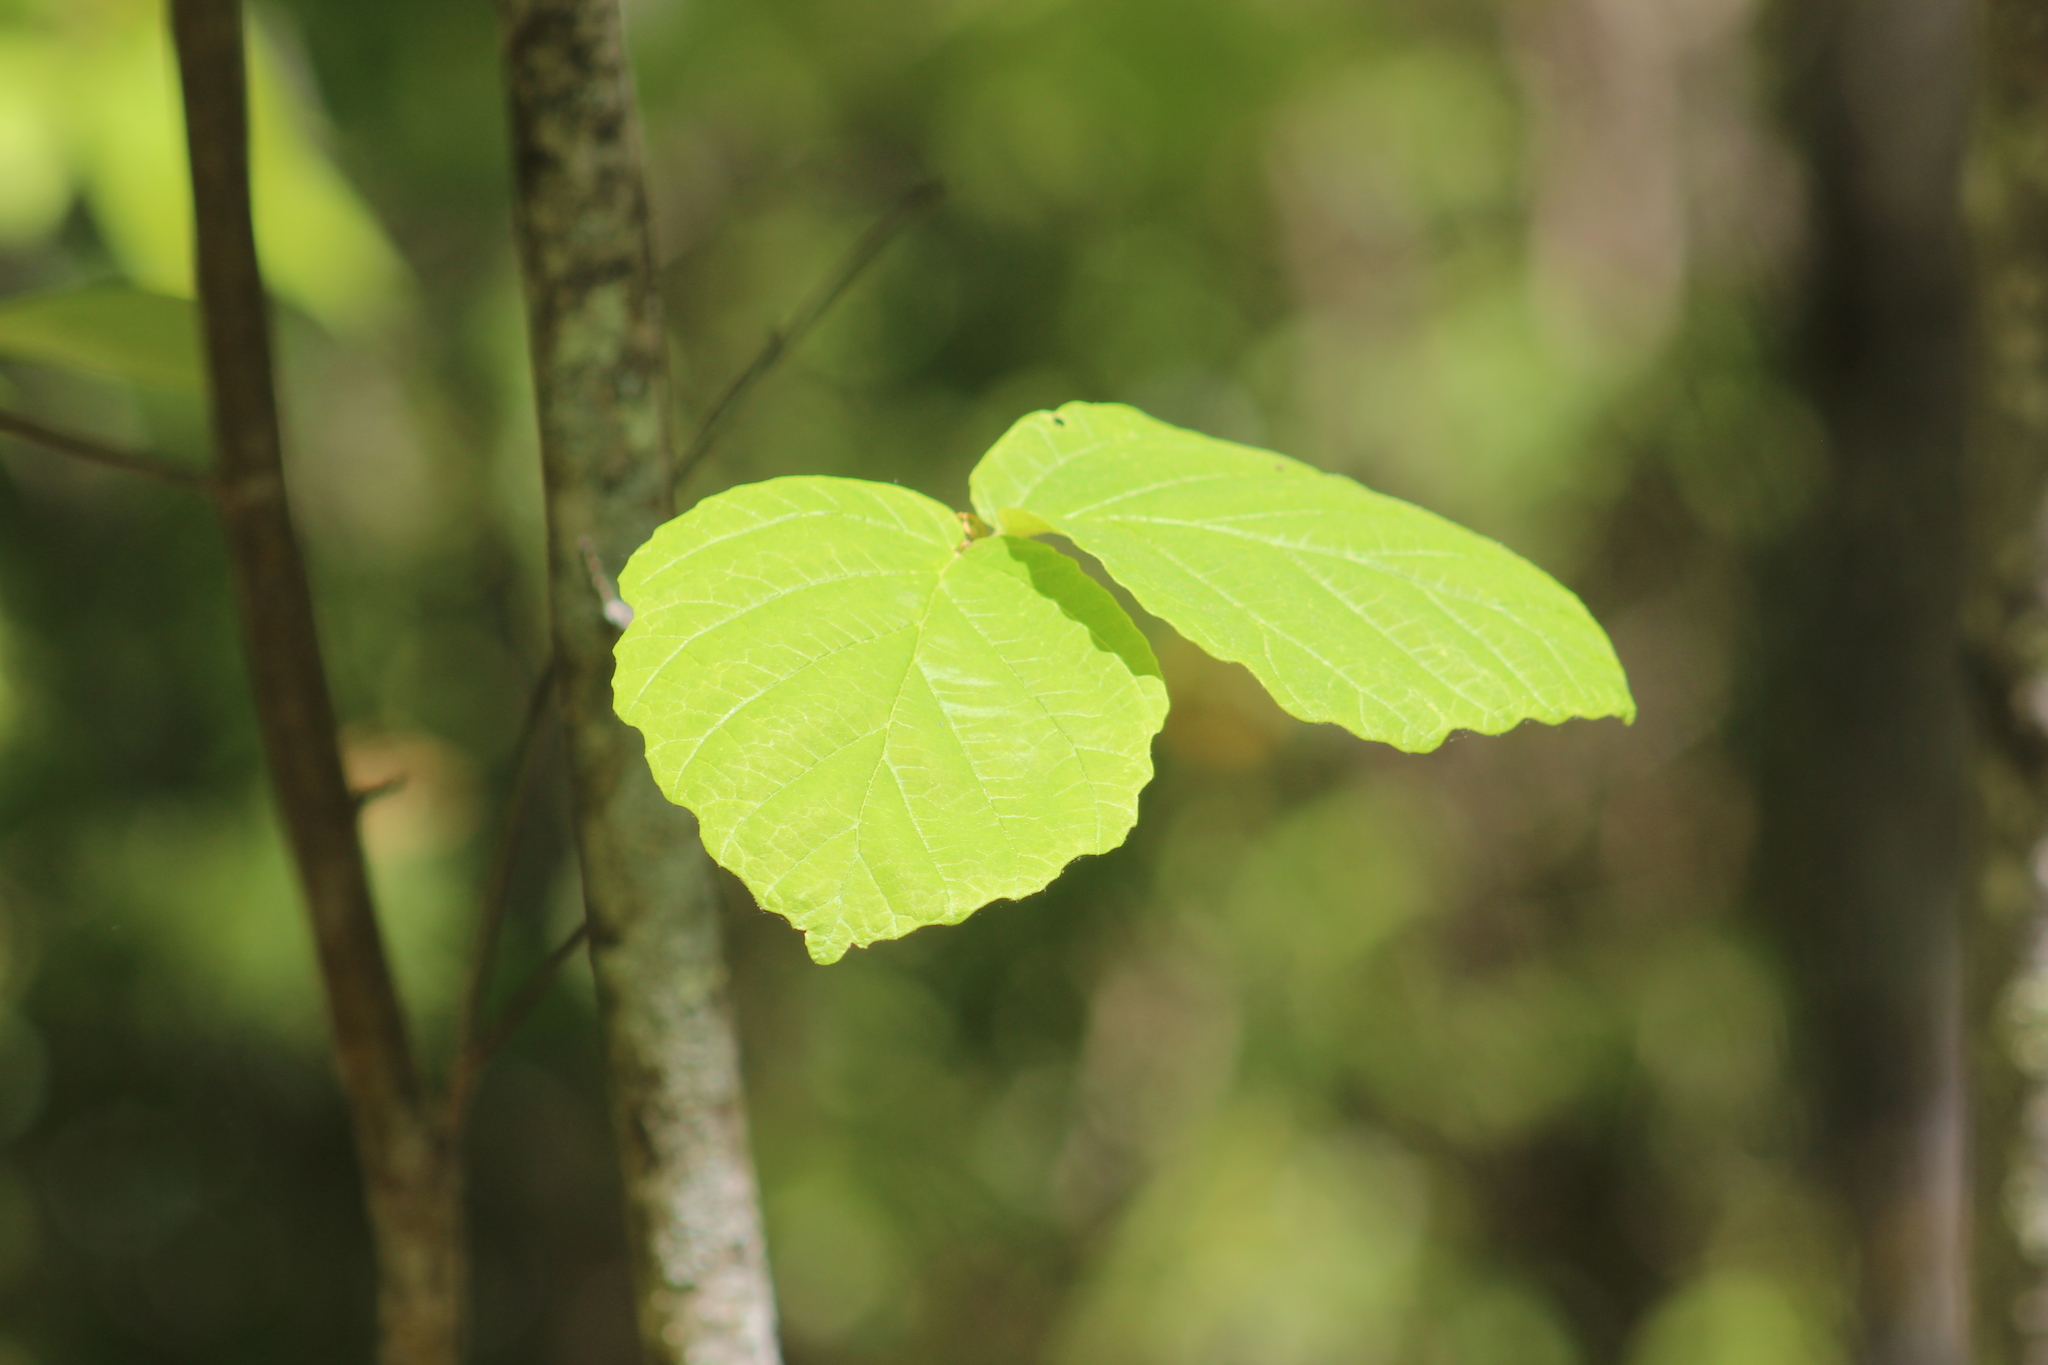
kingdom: Plantae
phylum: Tracheophyta
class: Magnoliopsida
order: Saxifragales
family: Hamamelidaceae
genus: Hamamelis
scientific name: Hamamelis virginiana
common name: Witch-hazel
